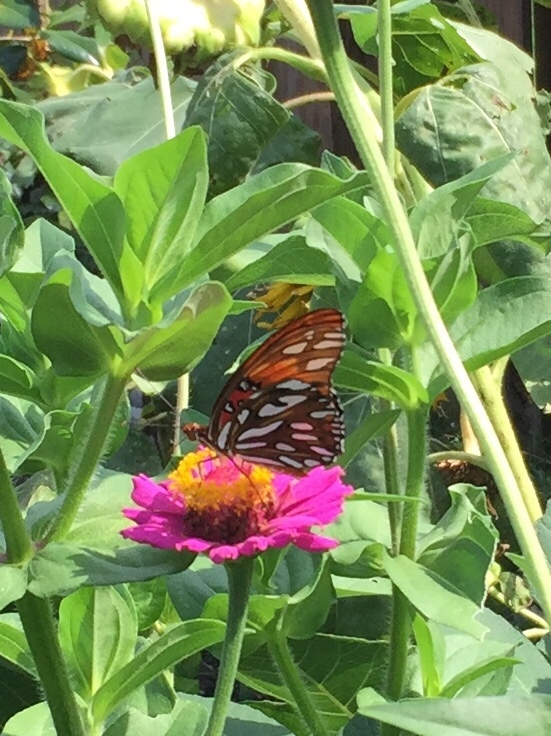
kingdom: Animalia
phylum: Arthropoda
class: Insecta
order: Lepidoptera
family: Nymphalidae
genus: Dione
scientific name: Dione vanillae
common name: Gulf fritillary
